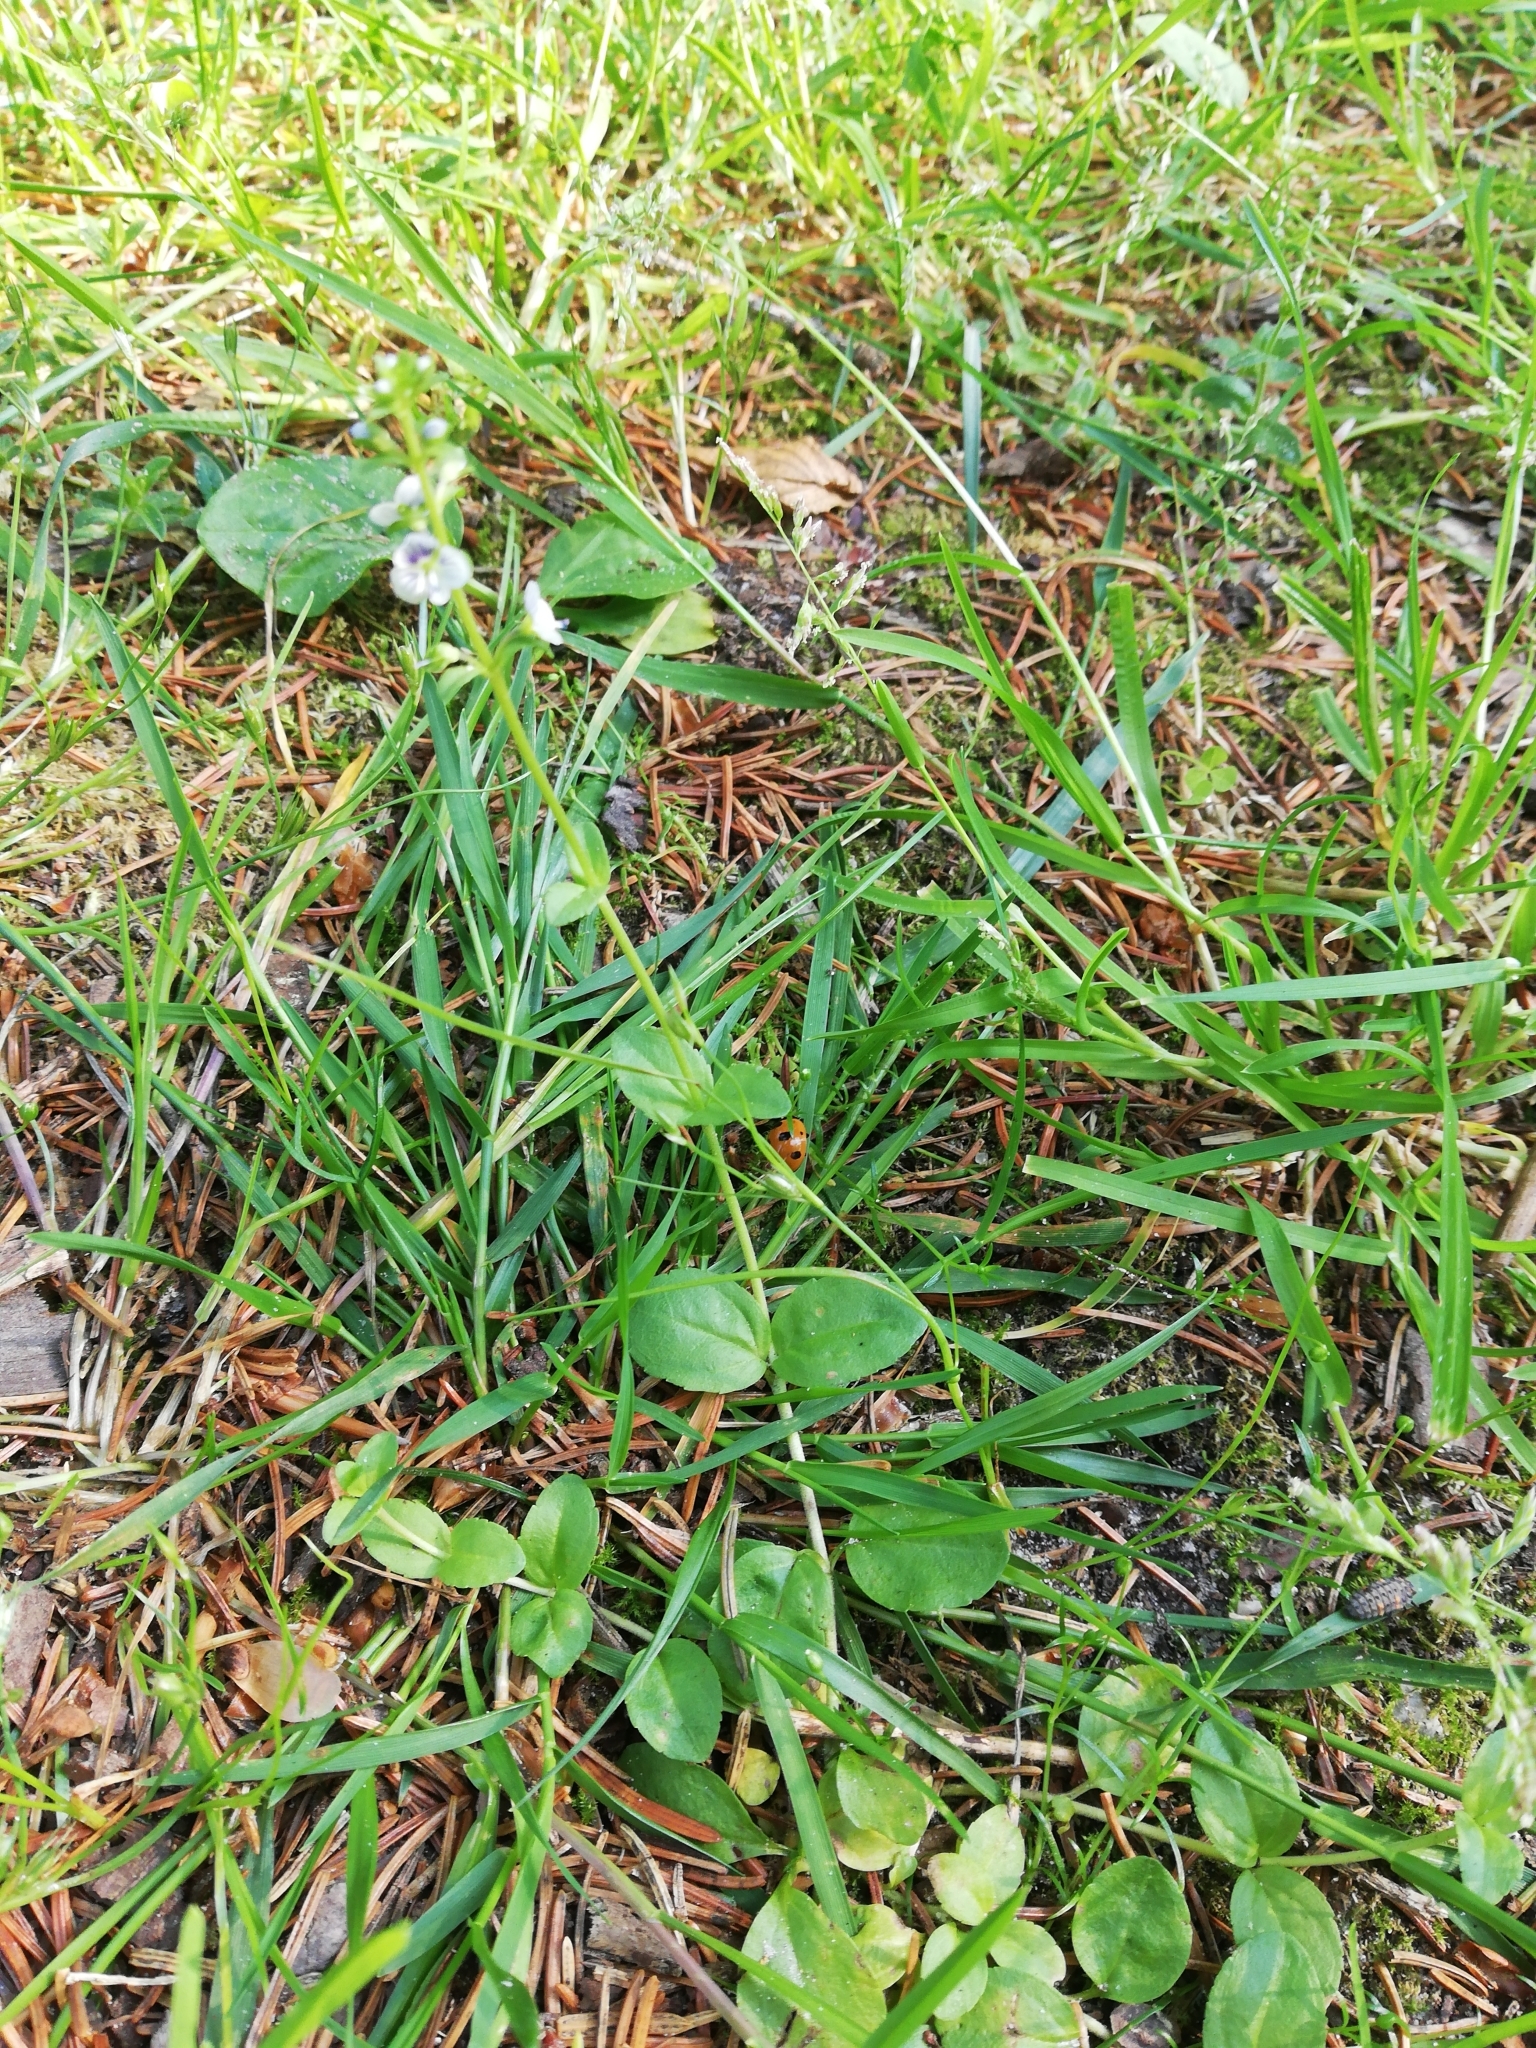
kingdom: Plantae
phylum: Tracheophyta
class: Magnoliopsida
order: Lamiales
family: Plantaginaceae
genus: Veronica
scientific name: Veronica serpyllifolia
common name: Thyme-leaved speedwell
